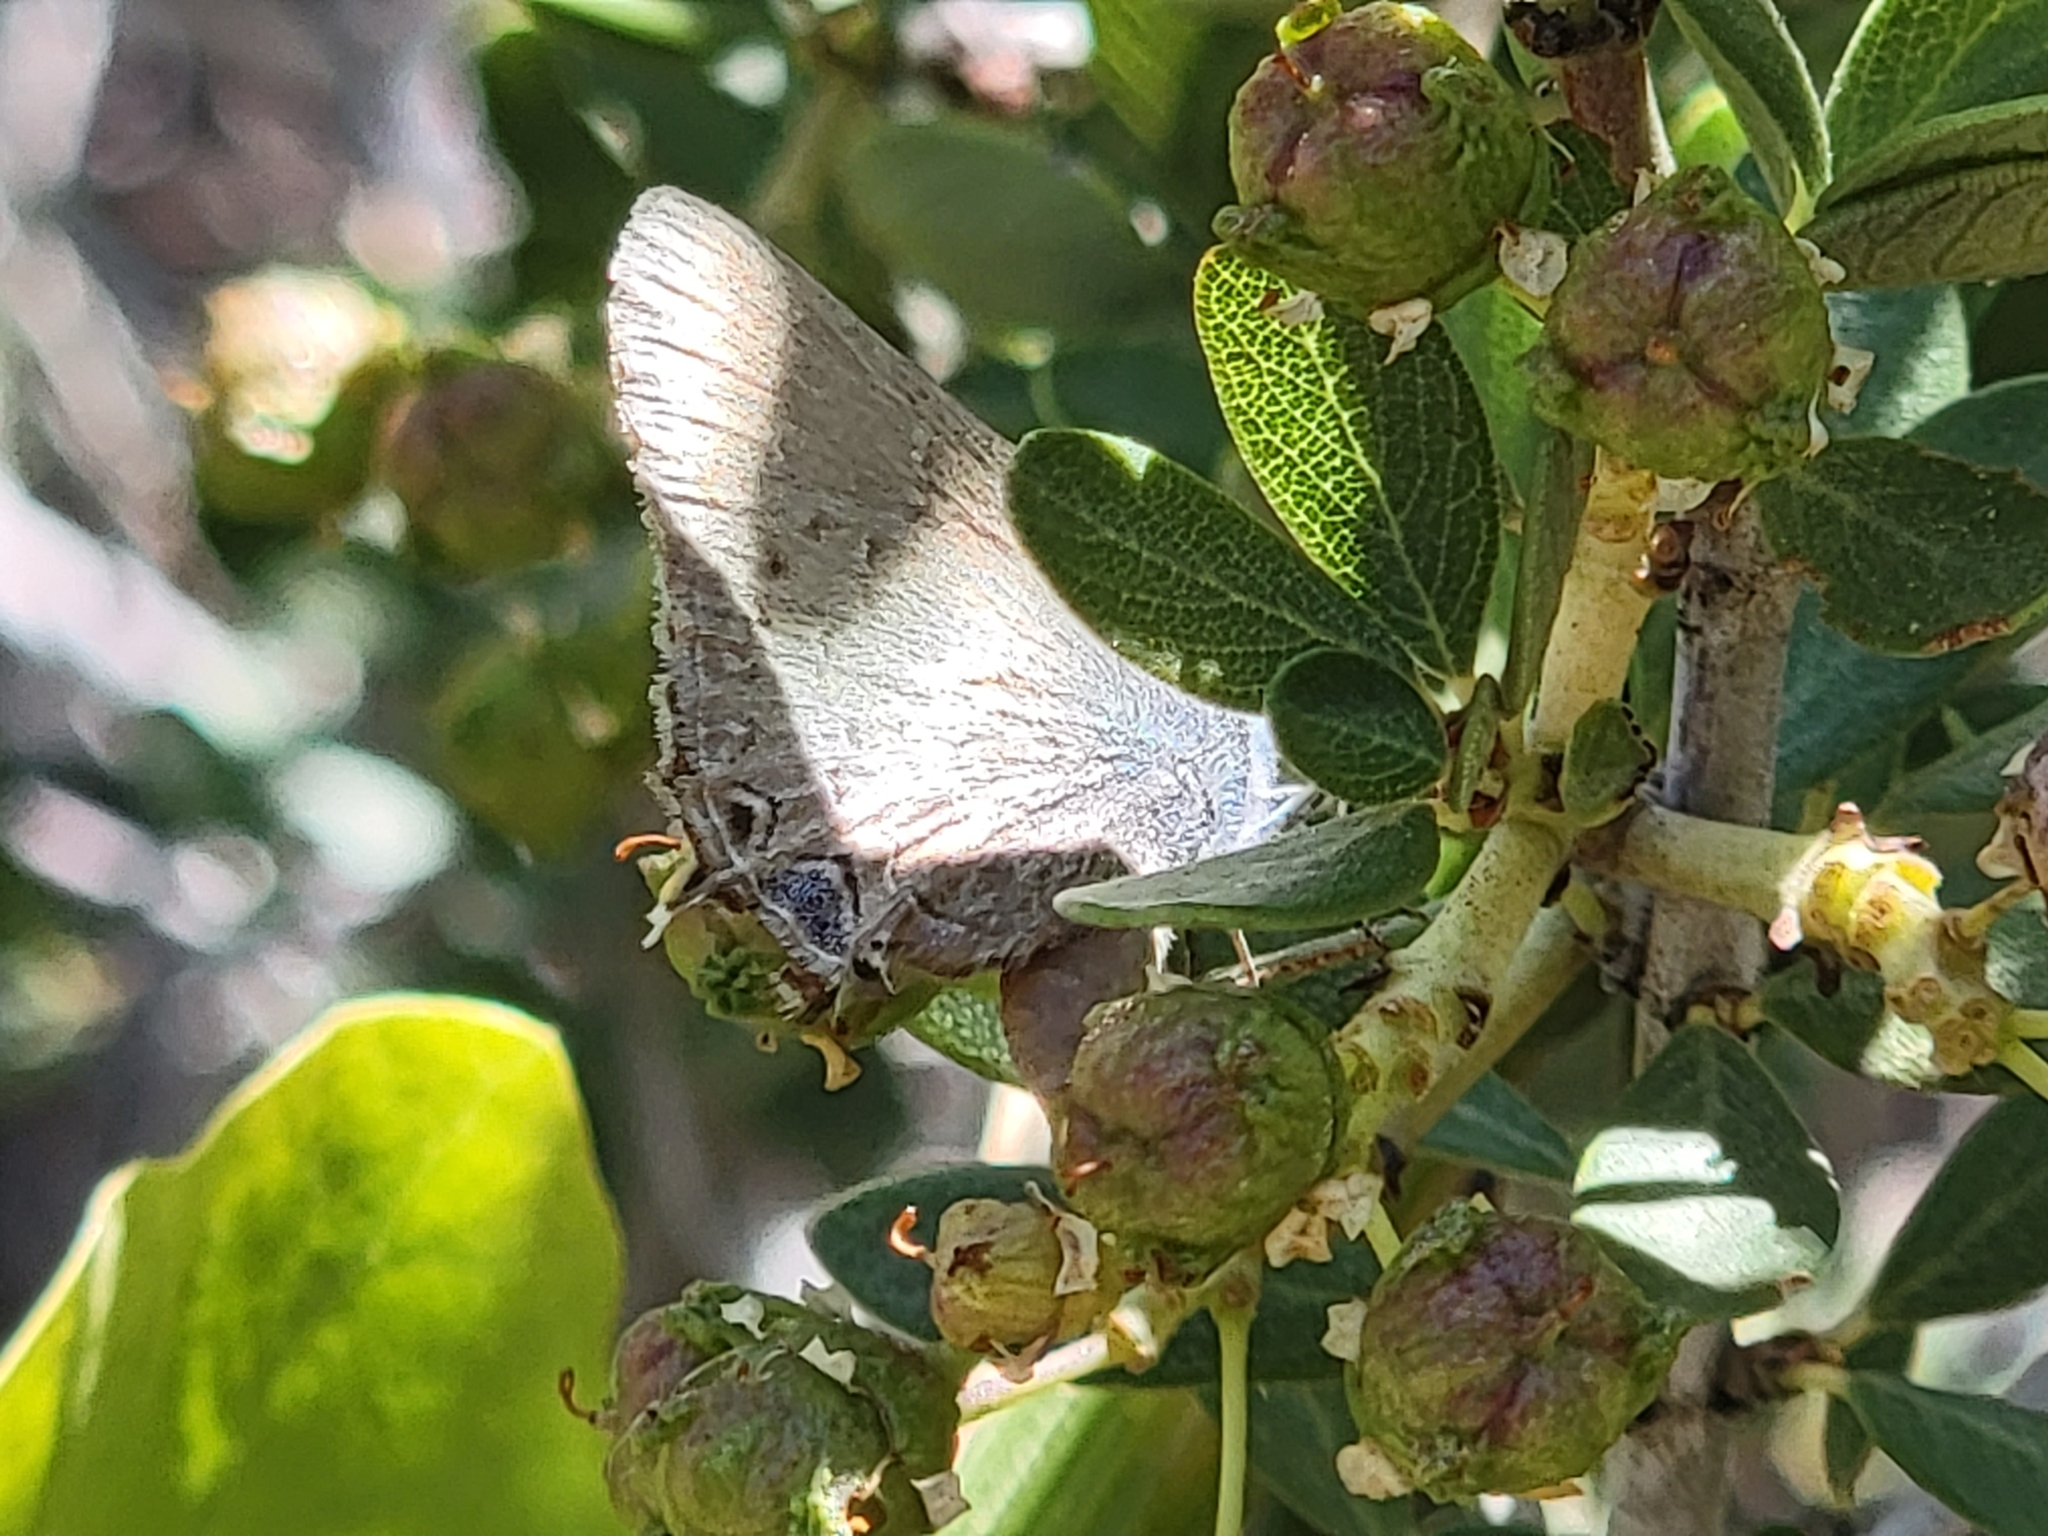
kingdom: Animalia
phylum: Arthropoda
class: Insecta
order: Lepidoptera
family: Lycaenidae
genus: Strymon
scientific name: Strymon saepium
